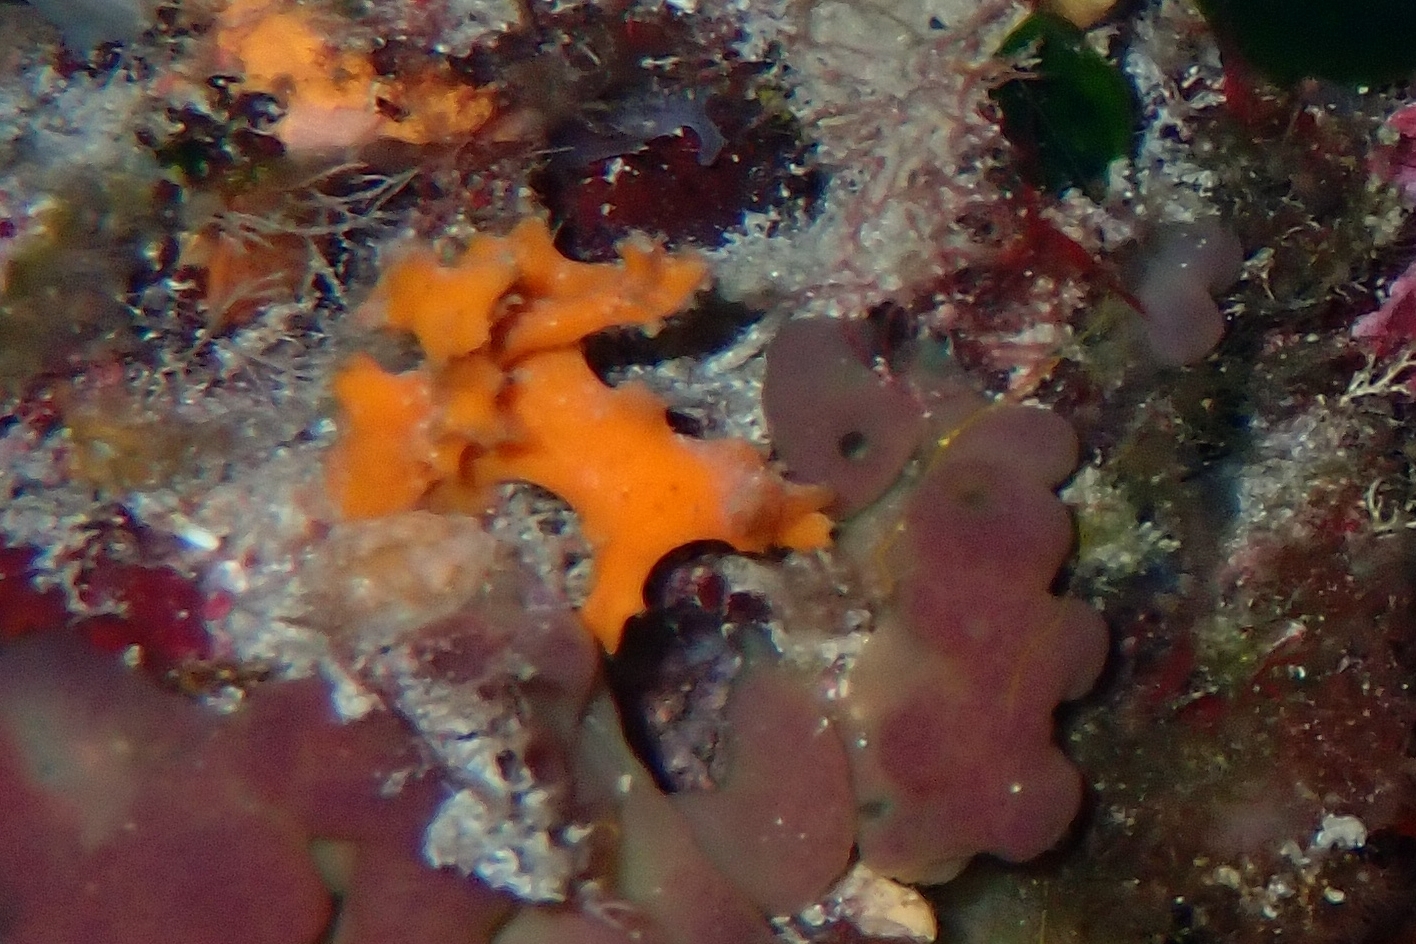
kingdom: Animalia
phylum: Porifera
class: Demospongiae
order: Bubarida
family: Dictyonellidae
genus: Acanthella
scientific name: Acanthella acuta
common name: Cactus sponge
